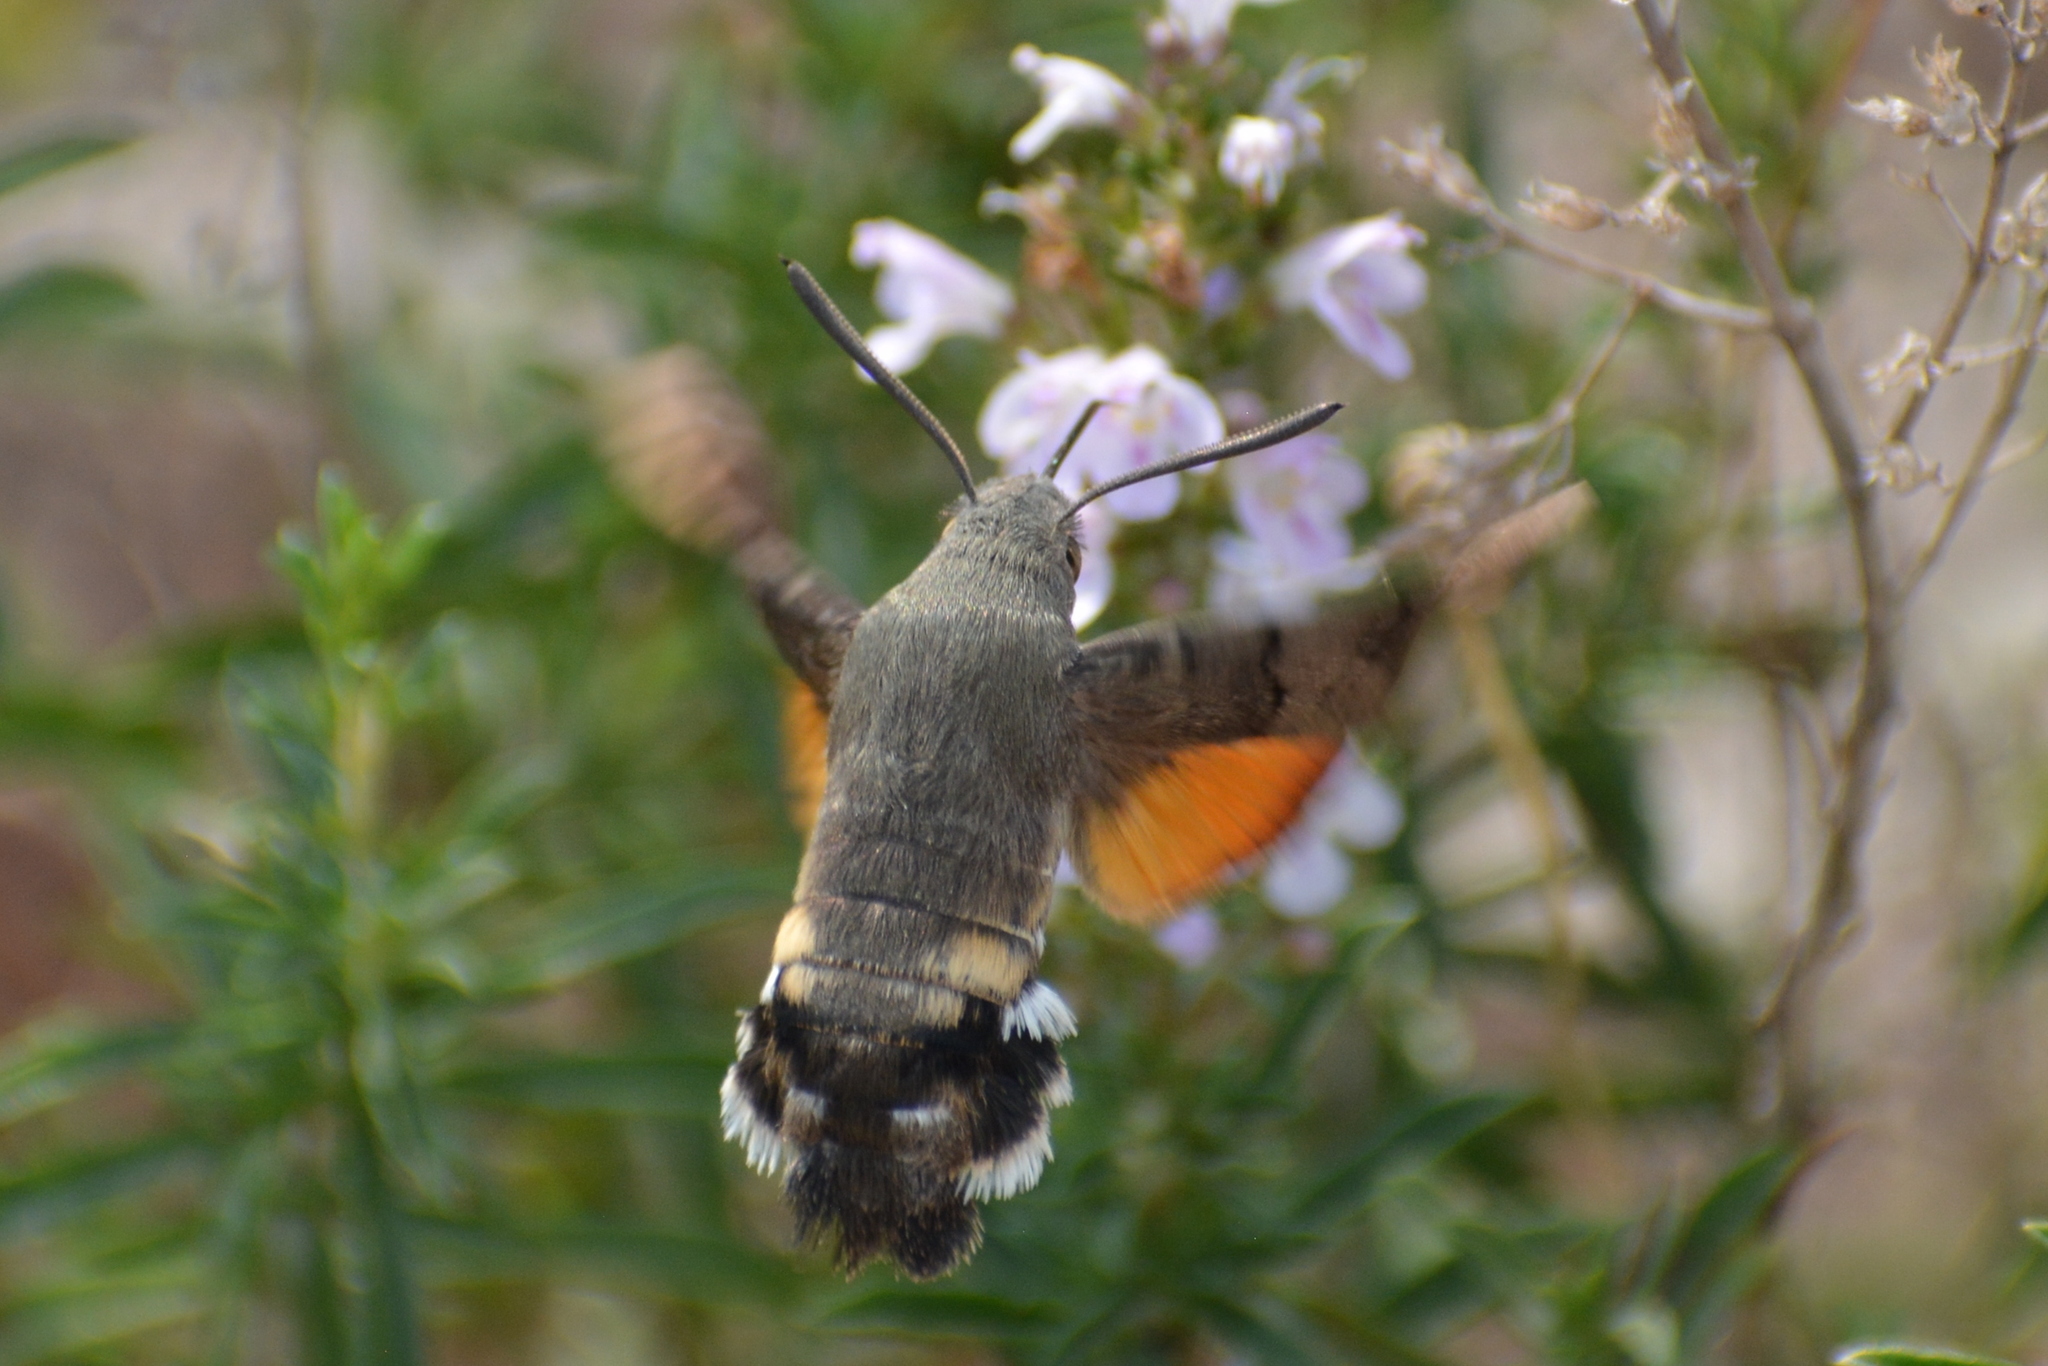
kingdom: Animalia
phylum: Arthropoda
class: Insecta
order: Lepidoptera
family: Sphingidae
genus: Macroglossum
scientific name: Macroglossum stellatarum
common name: Humming-bird hawk-moth
